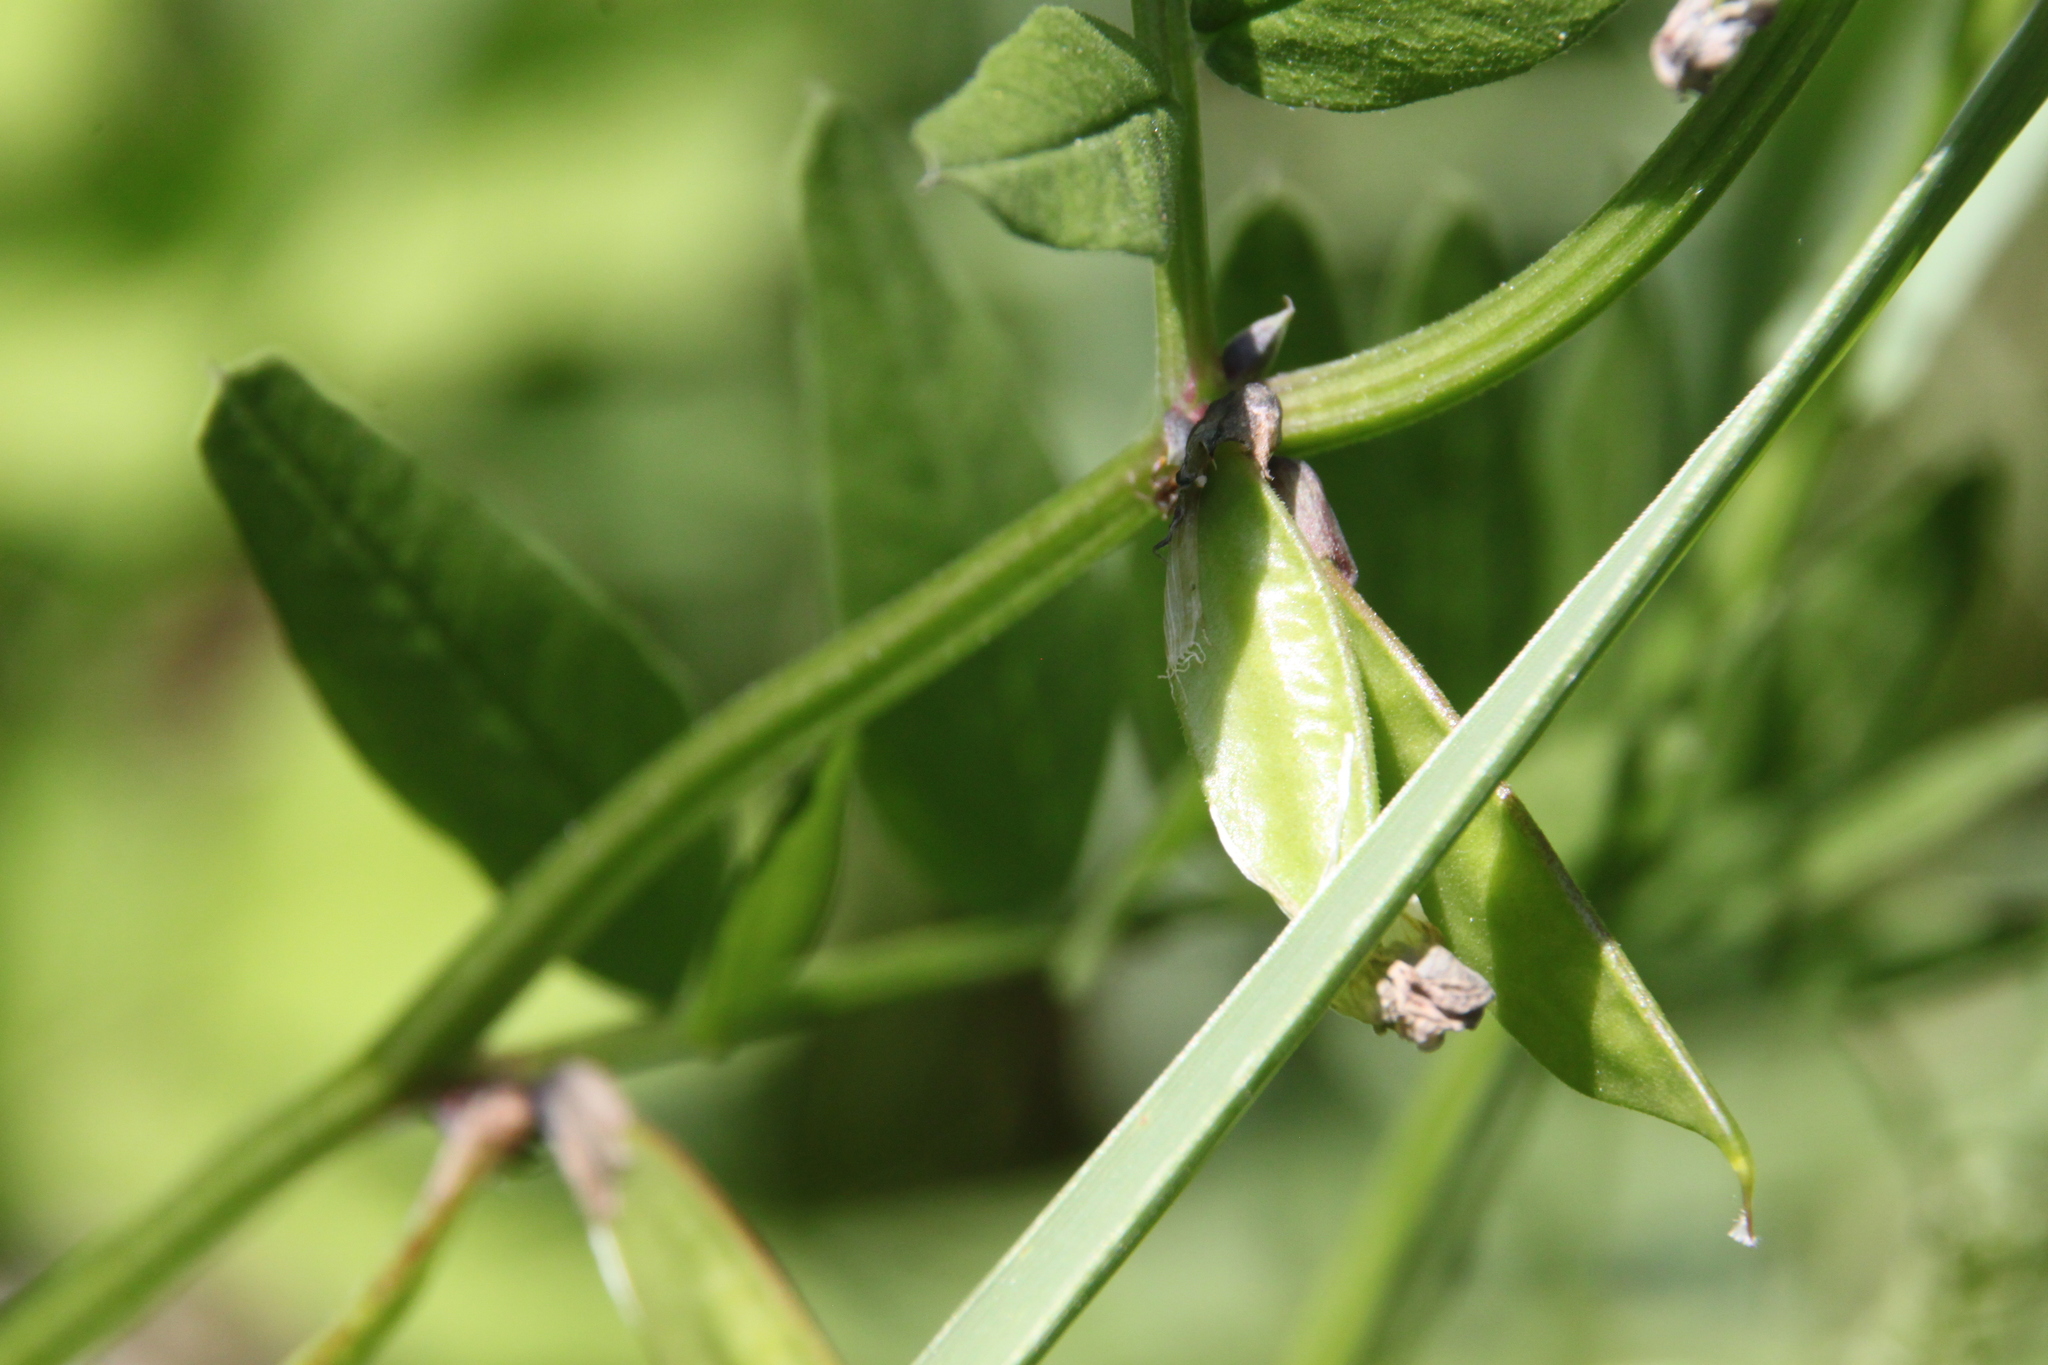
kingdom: Plantae
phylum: Tracheophyta
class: Magnoliopsida
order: Fabales
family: Fabaceae
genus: Vicia
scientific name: Vicia sepium
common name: Bush vetch
